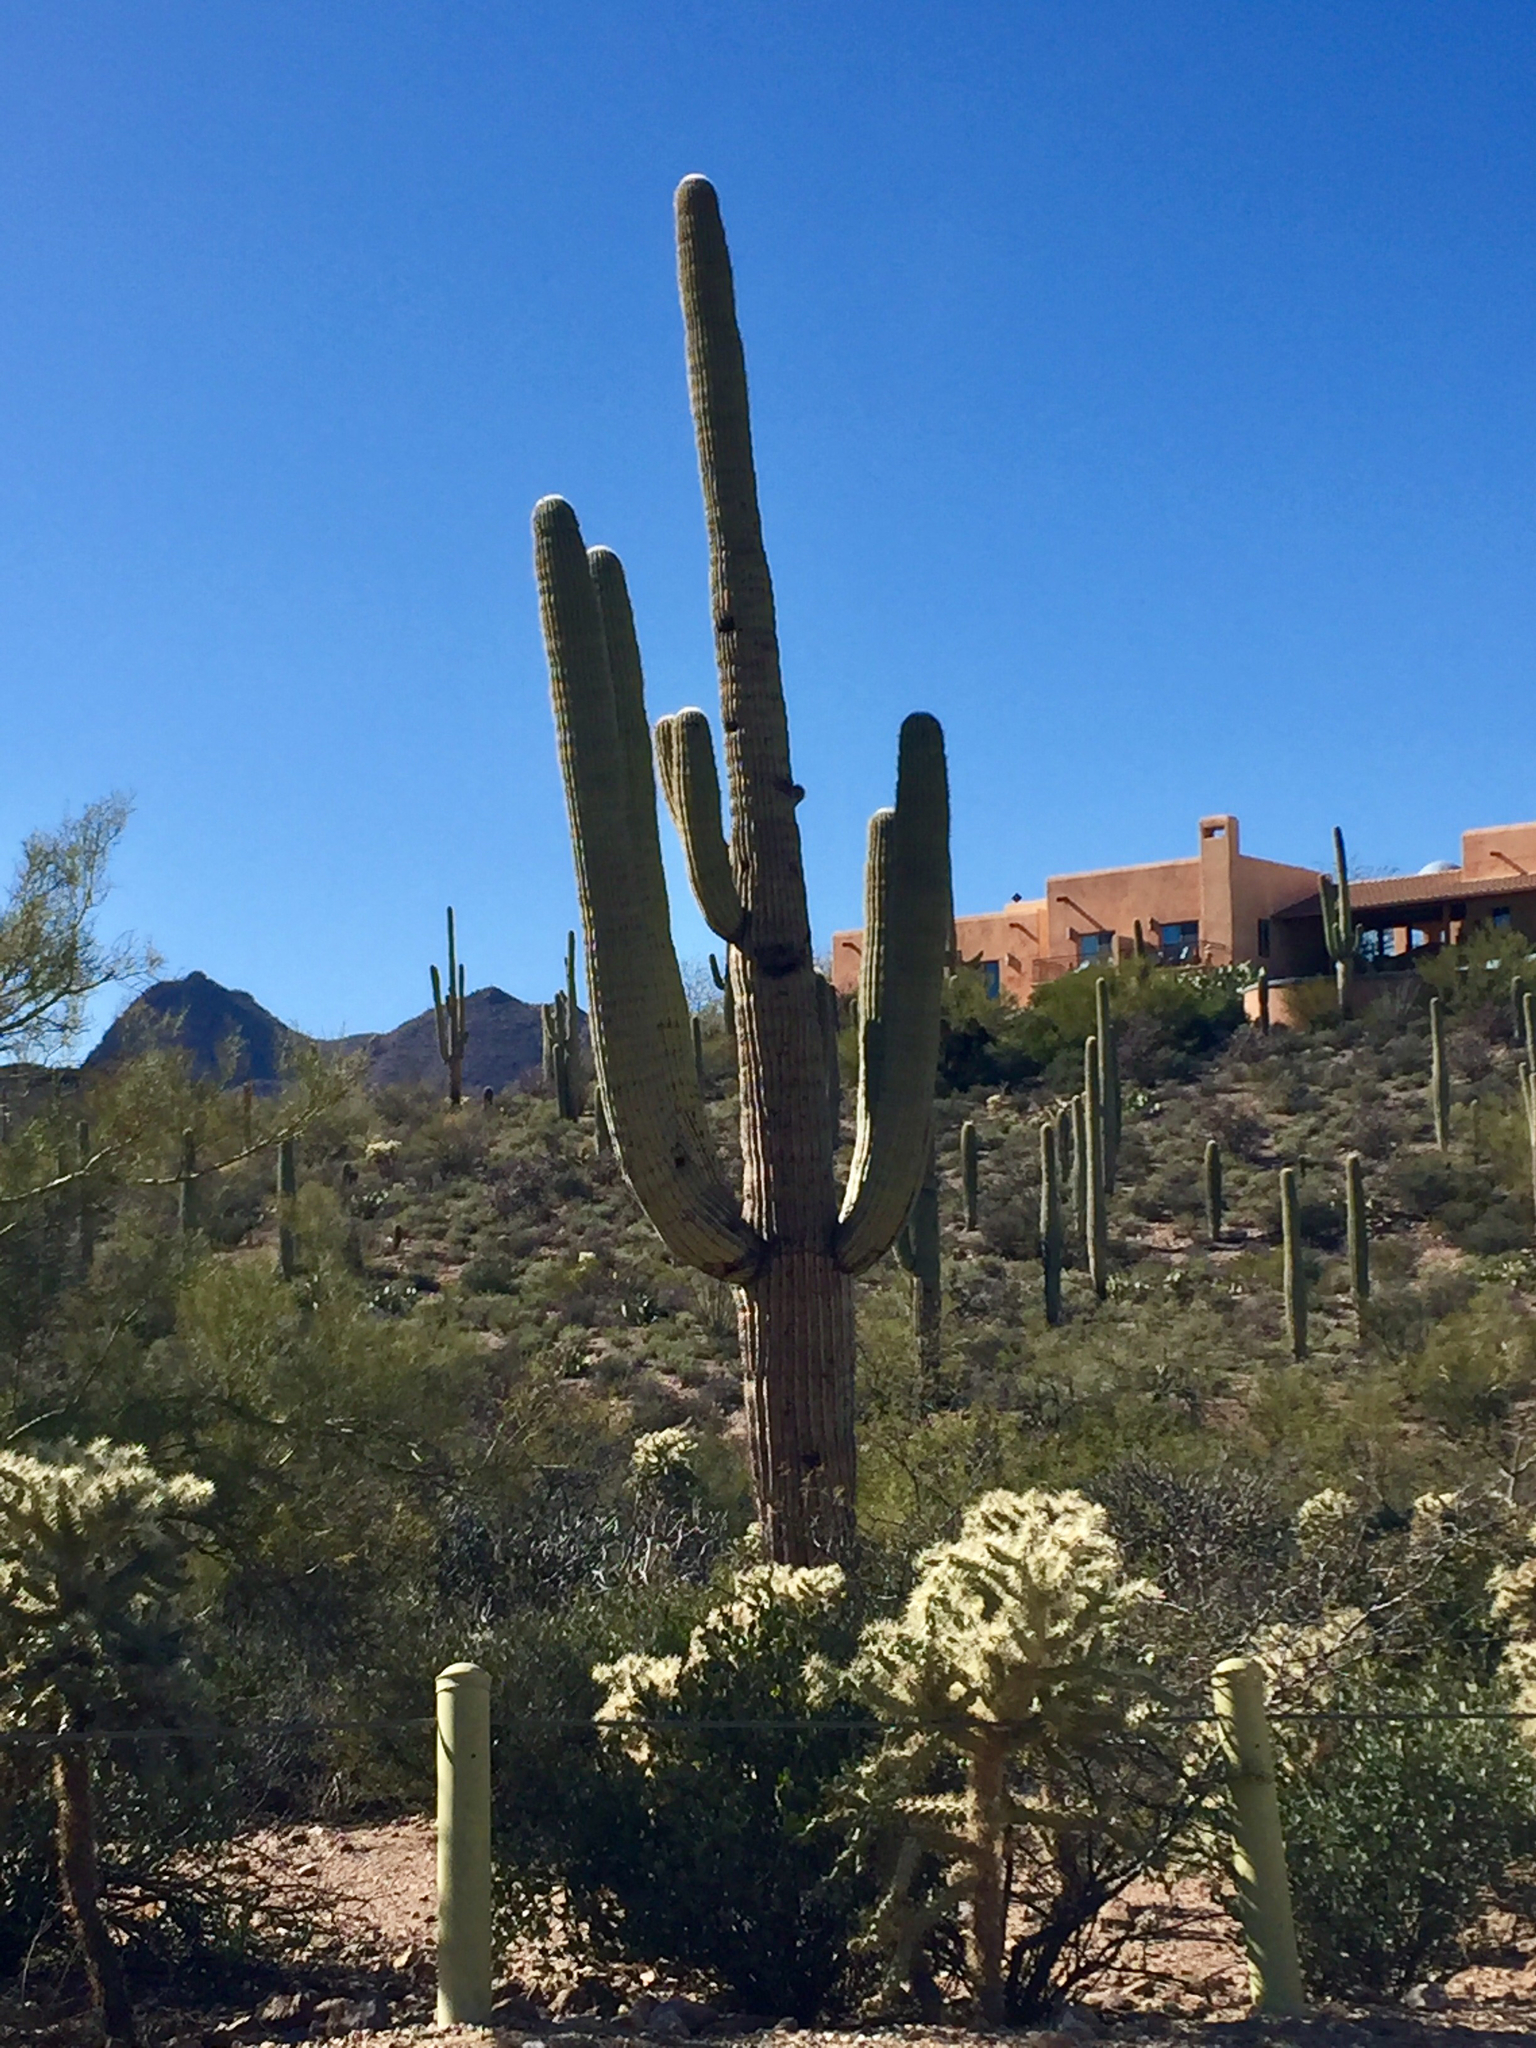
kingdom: Plantae
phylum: Tracheophyta
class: Magnoliopsida
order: Caryophyllales
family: Cactaceae
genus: Carnegiea
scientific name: Carnegiea gigantea
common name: Saguaro
